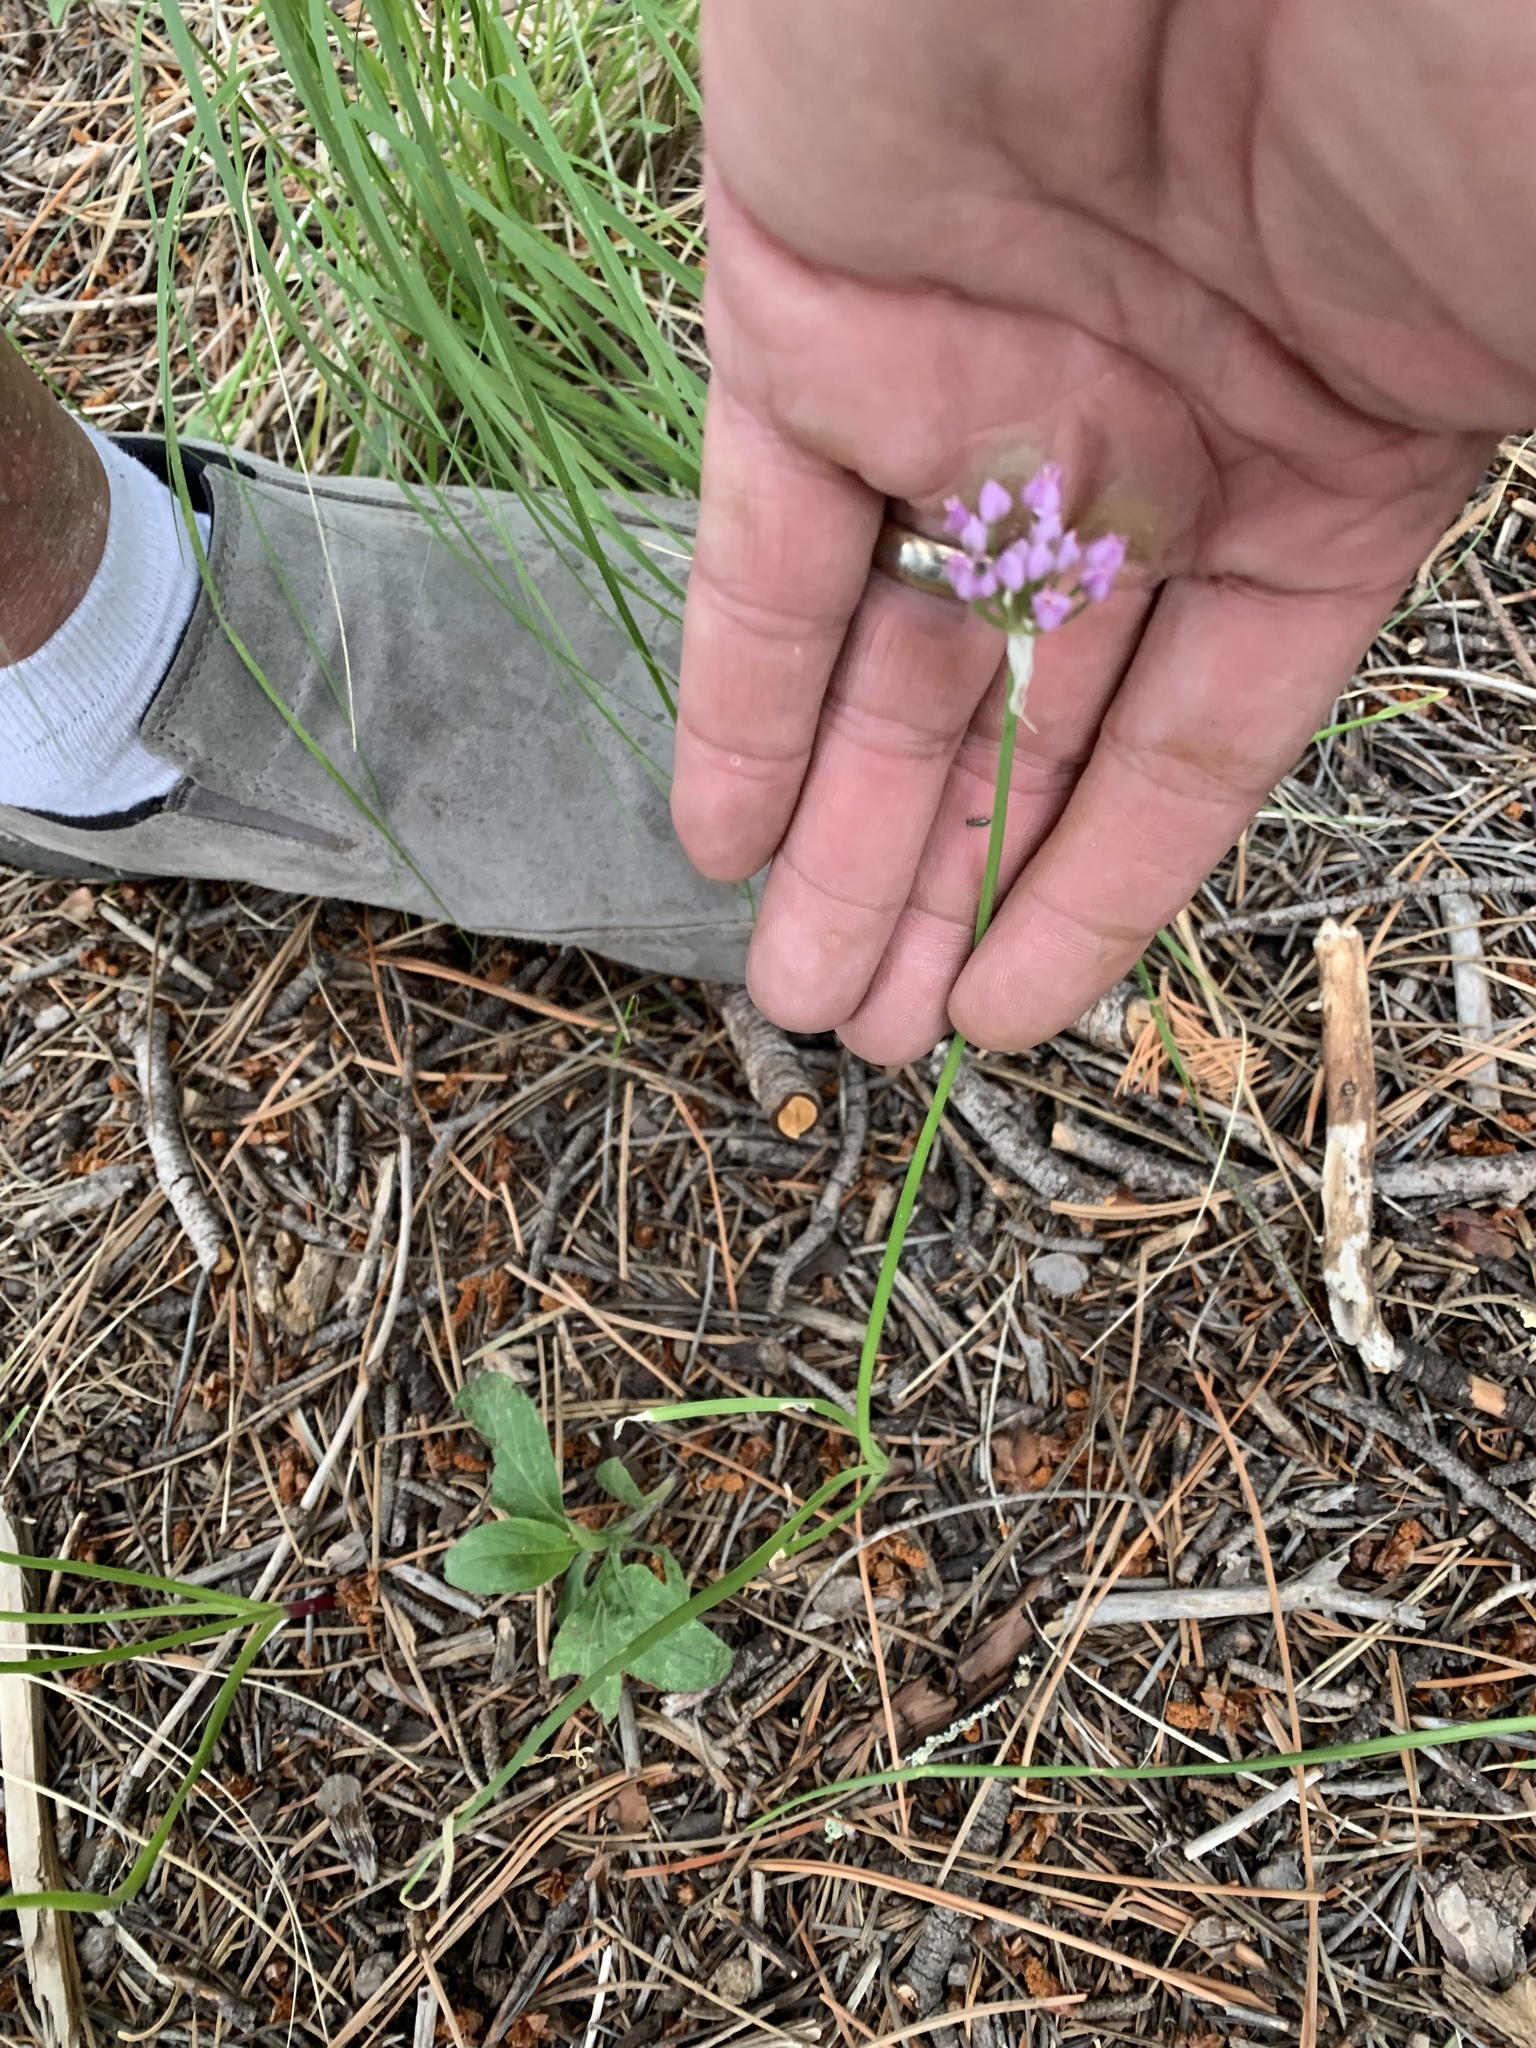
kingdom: Plantae
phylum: Tracheophyta
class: Liliopsida
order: Asparagales
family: Amaryllidaceae
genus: Allium
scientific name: Allium geyeri
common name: Geyer's onion
